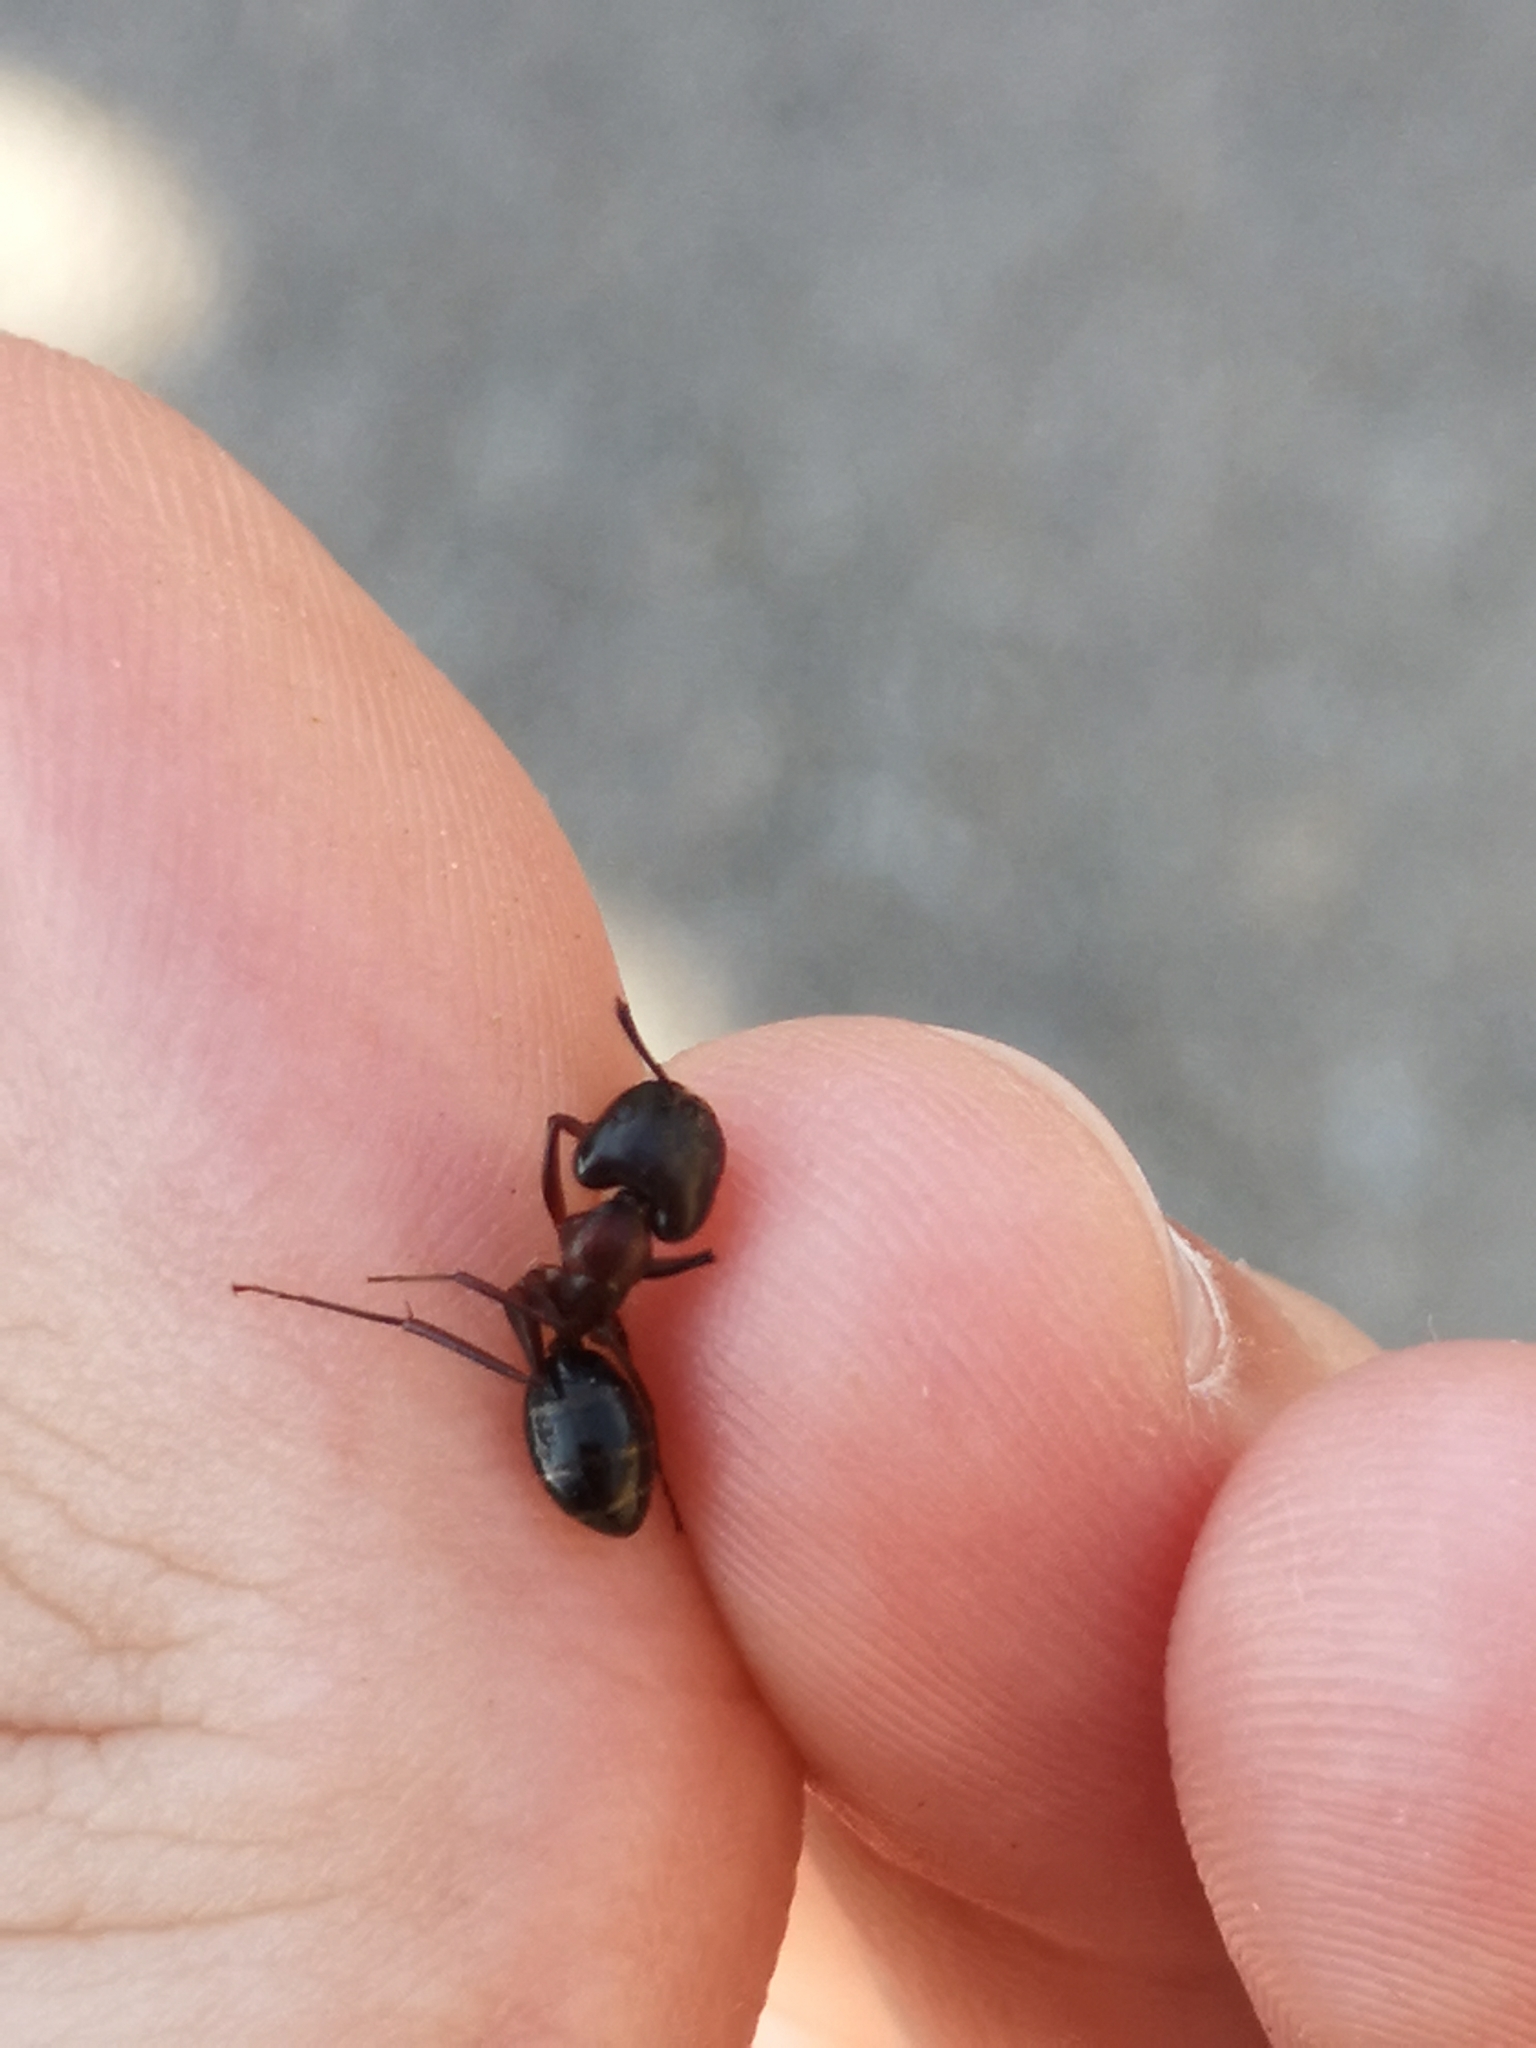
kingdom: Animalia
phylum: Arthropoda
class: Insecta
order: Hymenoptera
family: Formicidae
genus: Camponotus
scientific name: Camponotus sylvaticus
